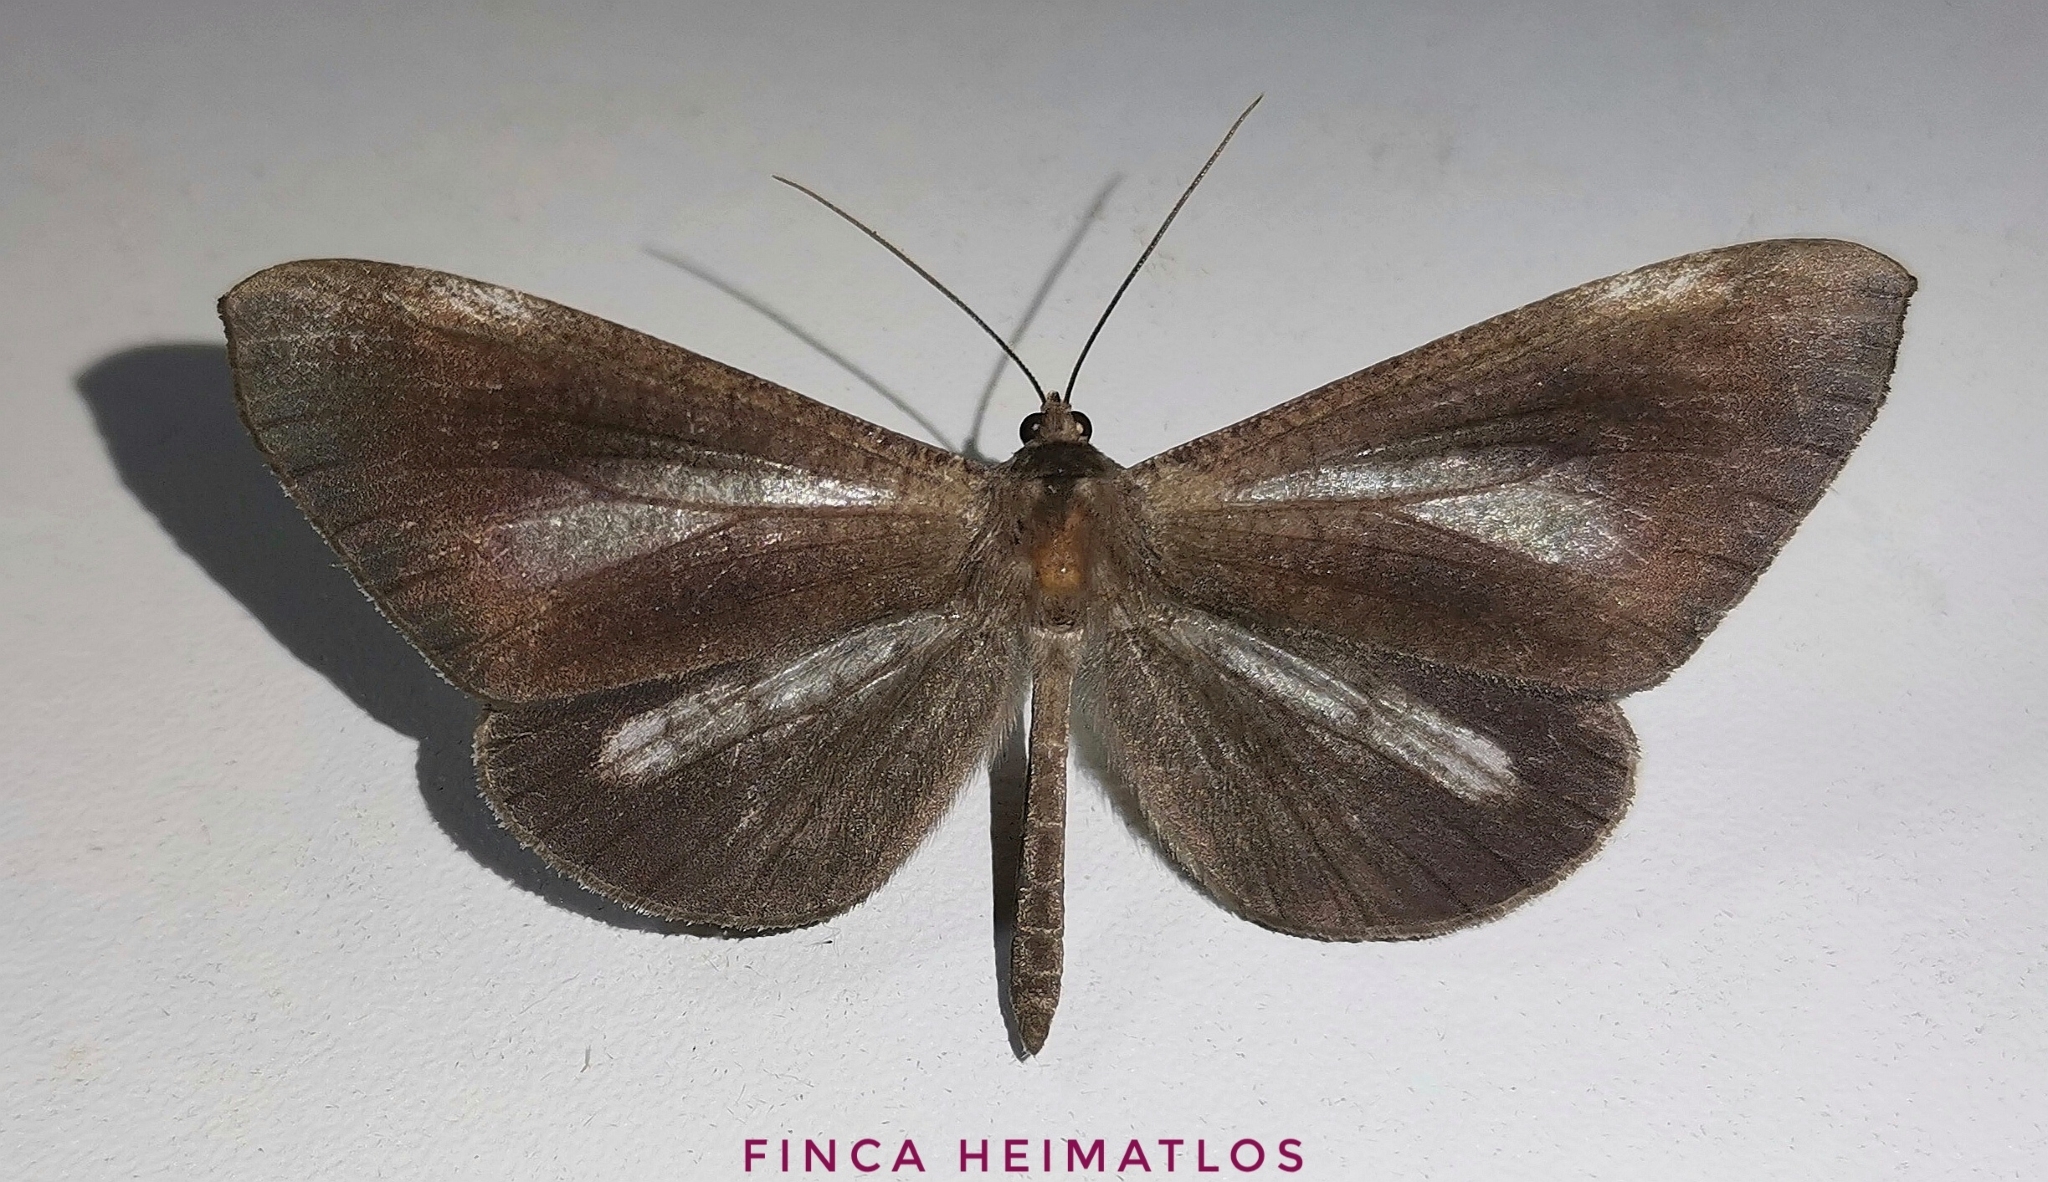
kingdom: Animalia
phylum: Arthropoda
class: Insecta
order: Lepidoptera
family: Hedylidae
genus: Macrosoma
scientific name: Macrosoma lucivittata
